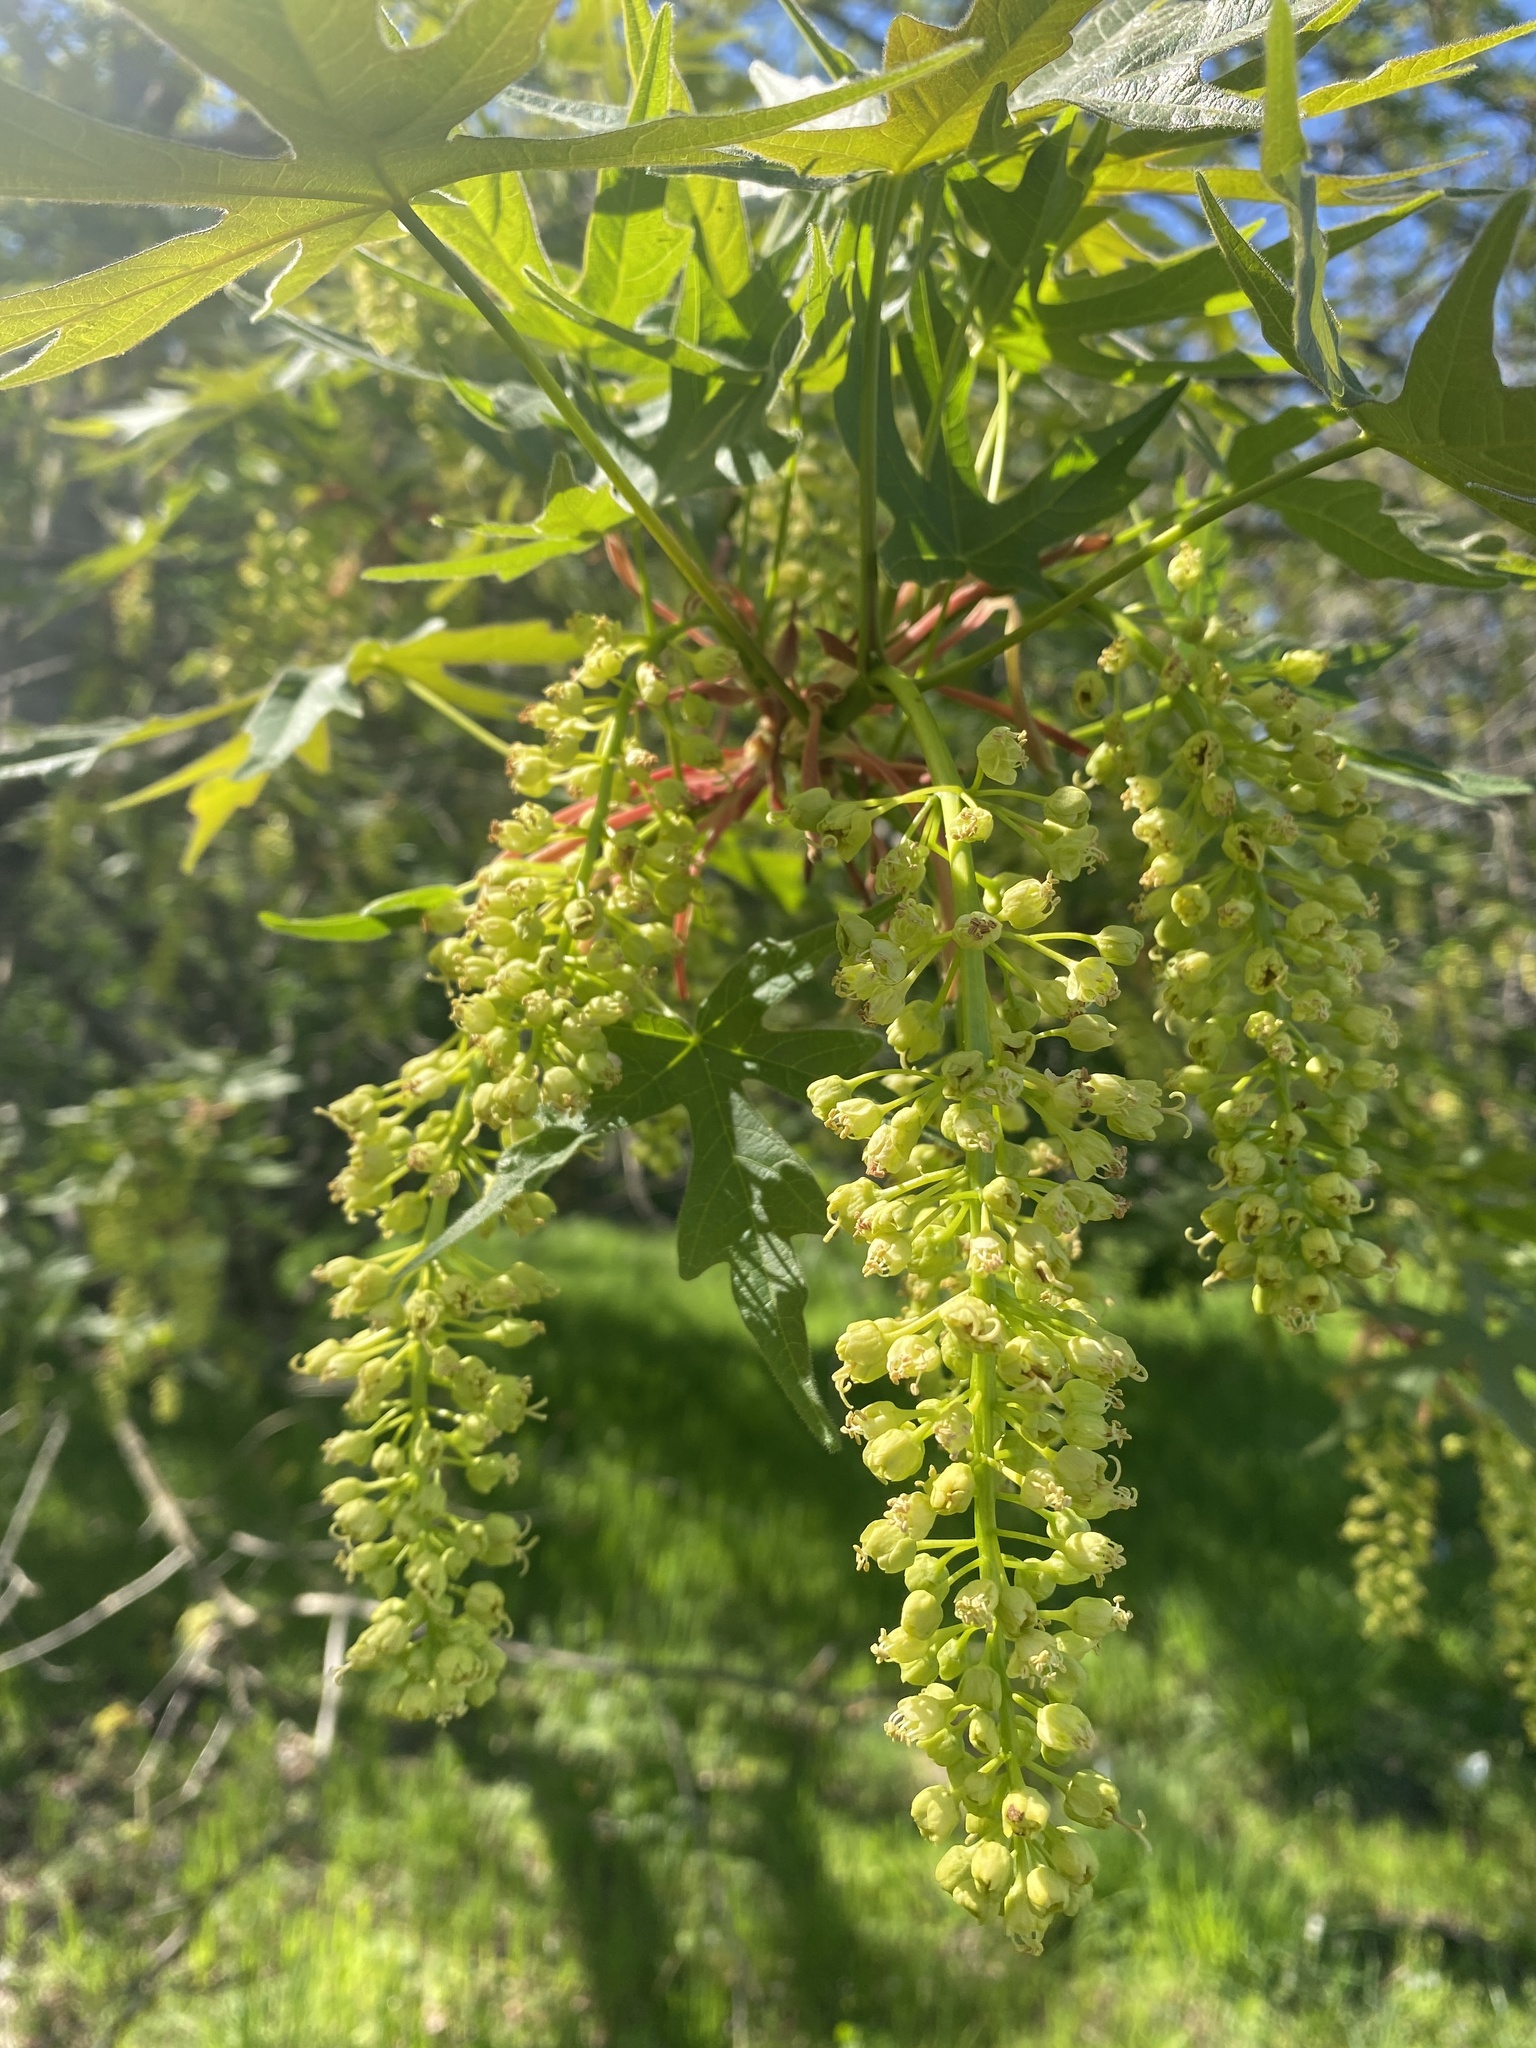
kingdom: Plantae
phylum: Tracheophyta
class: Magnoliopsida
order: Sapindales
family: Sapindaceae
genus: Acer
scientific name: Acer macrophyllum
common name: Oregon maple
